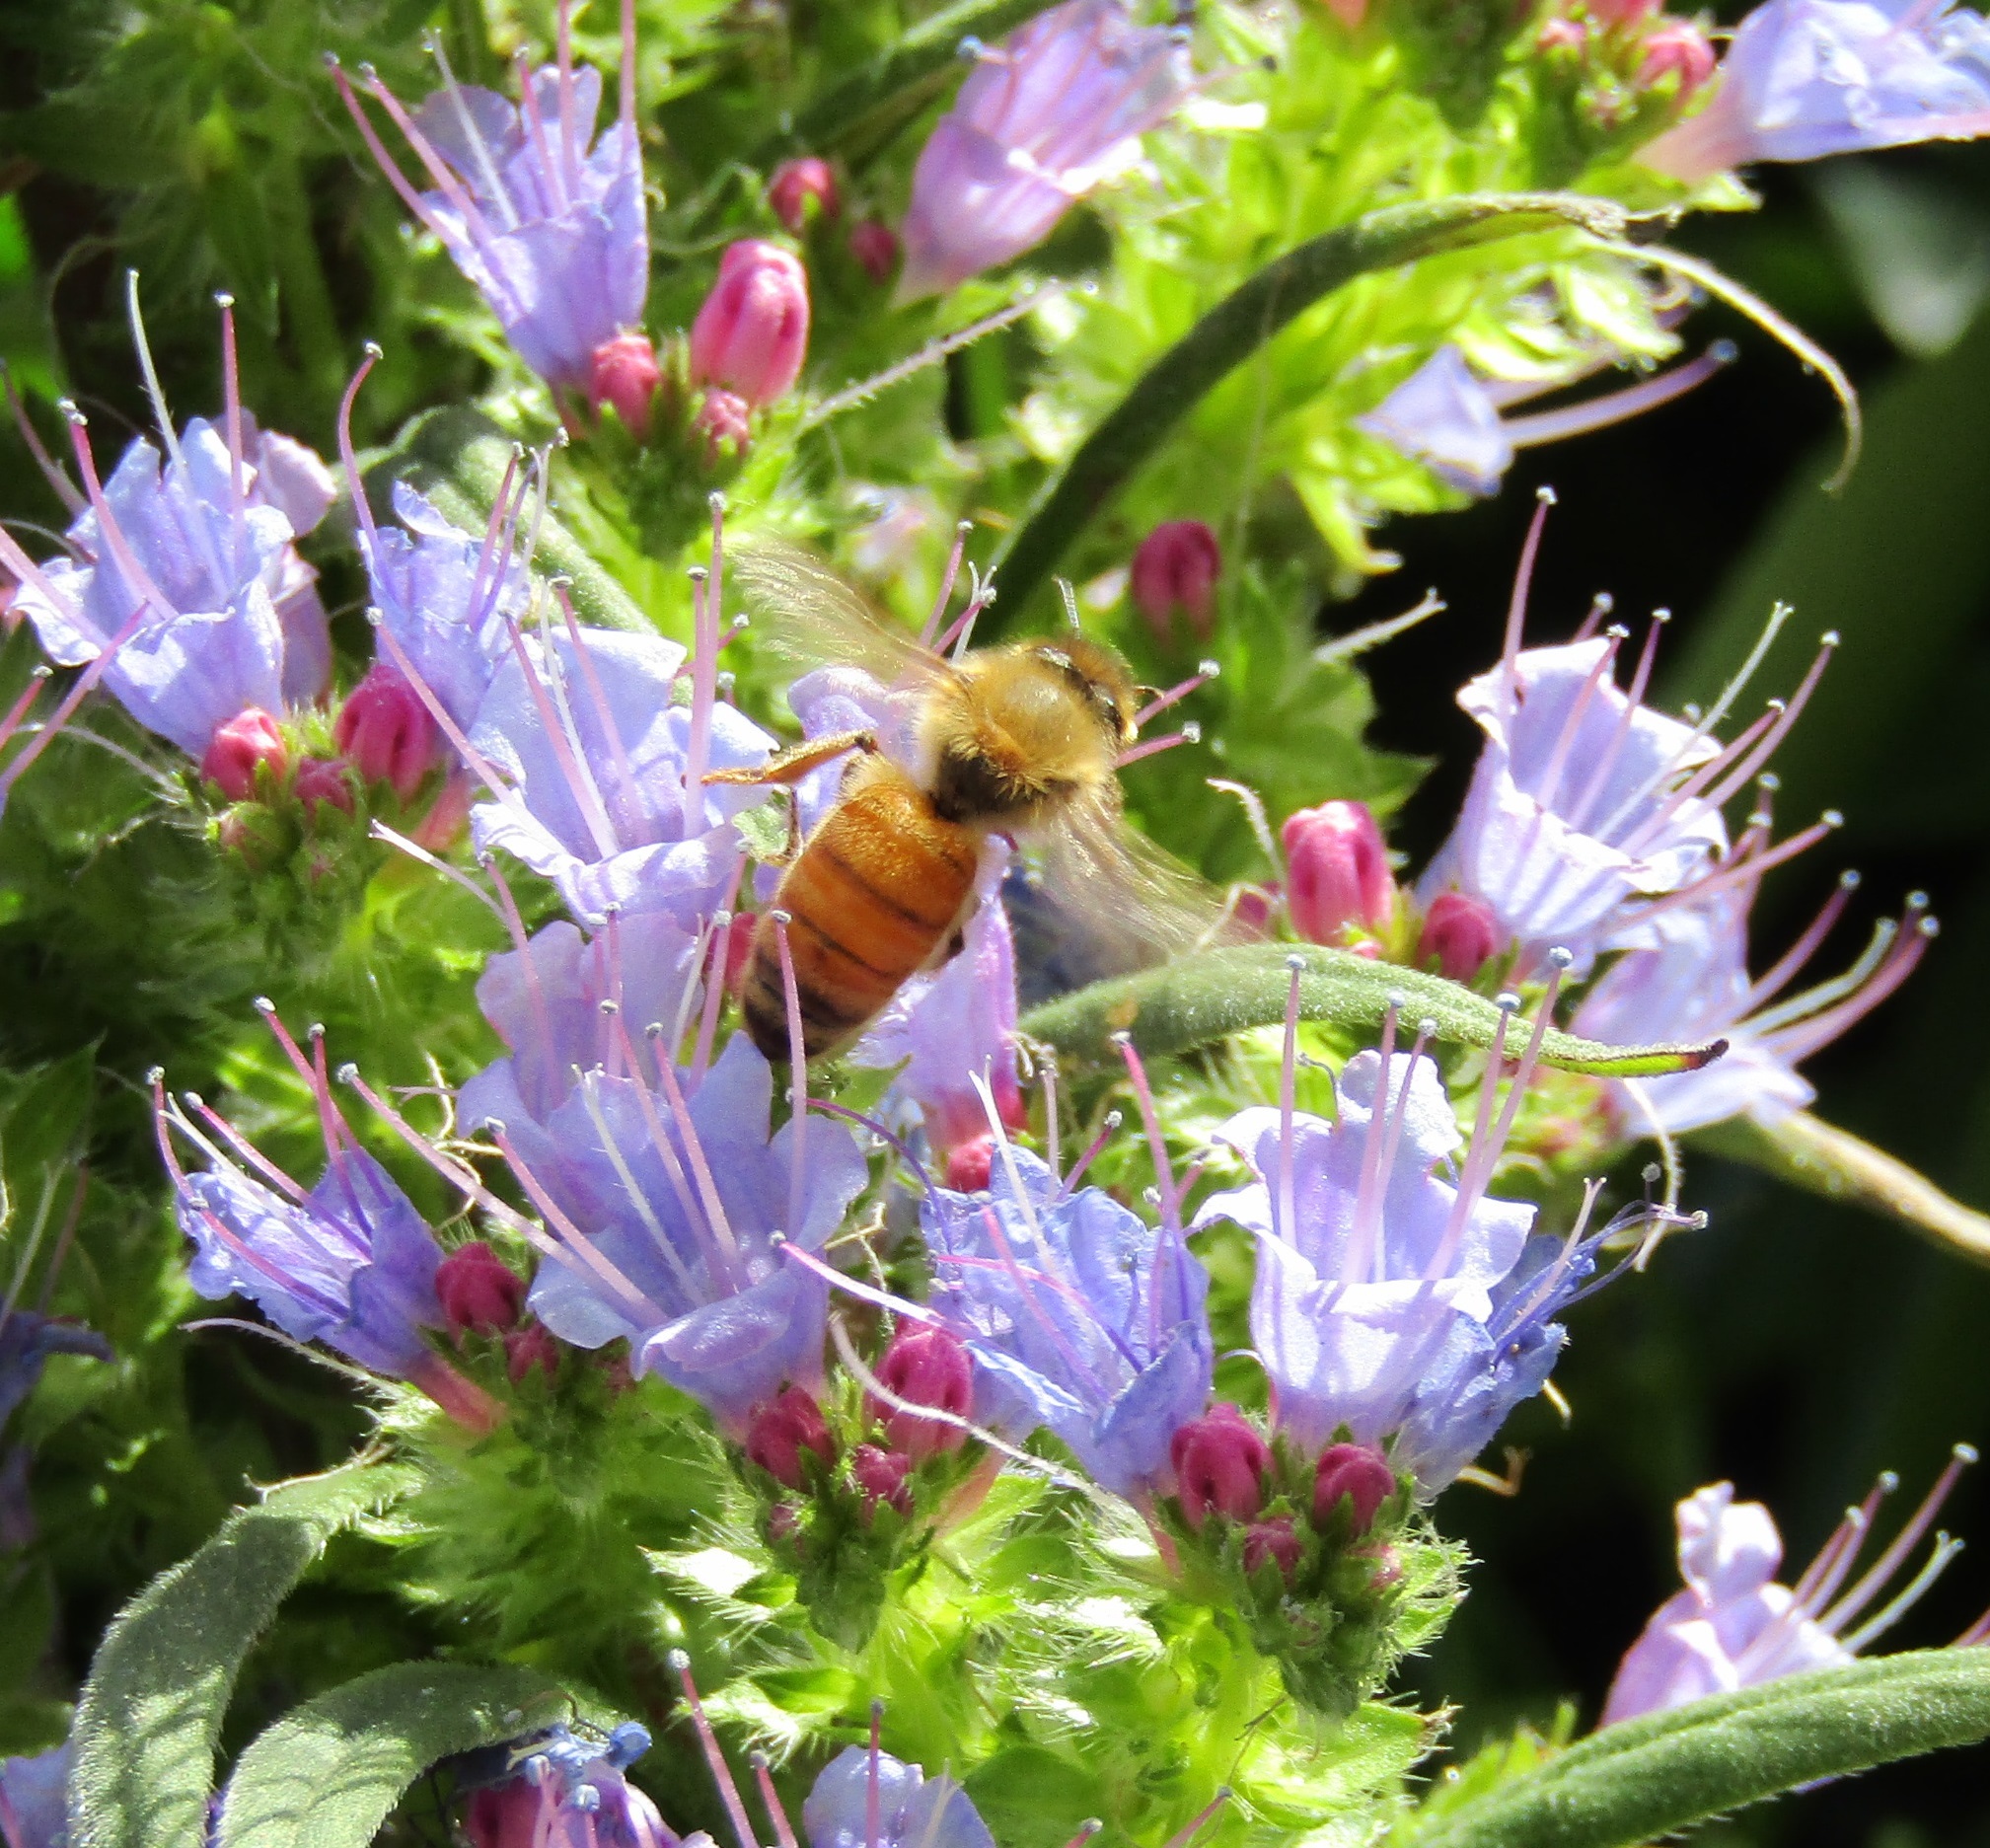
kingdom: Animalia
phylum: Arthropoda
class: Insecta
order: Hymenoptera
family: Apidae
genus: Apis
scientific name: Apis mellifera
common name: Honey bee
